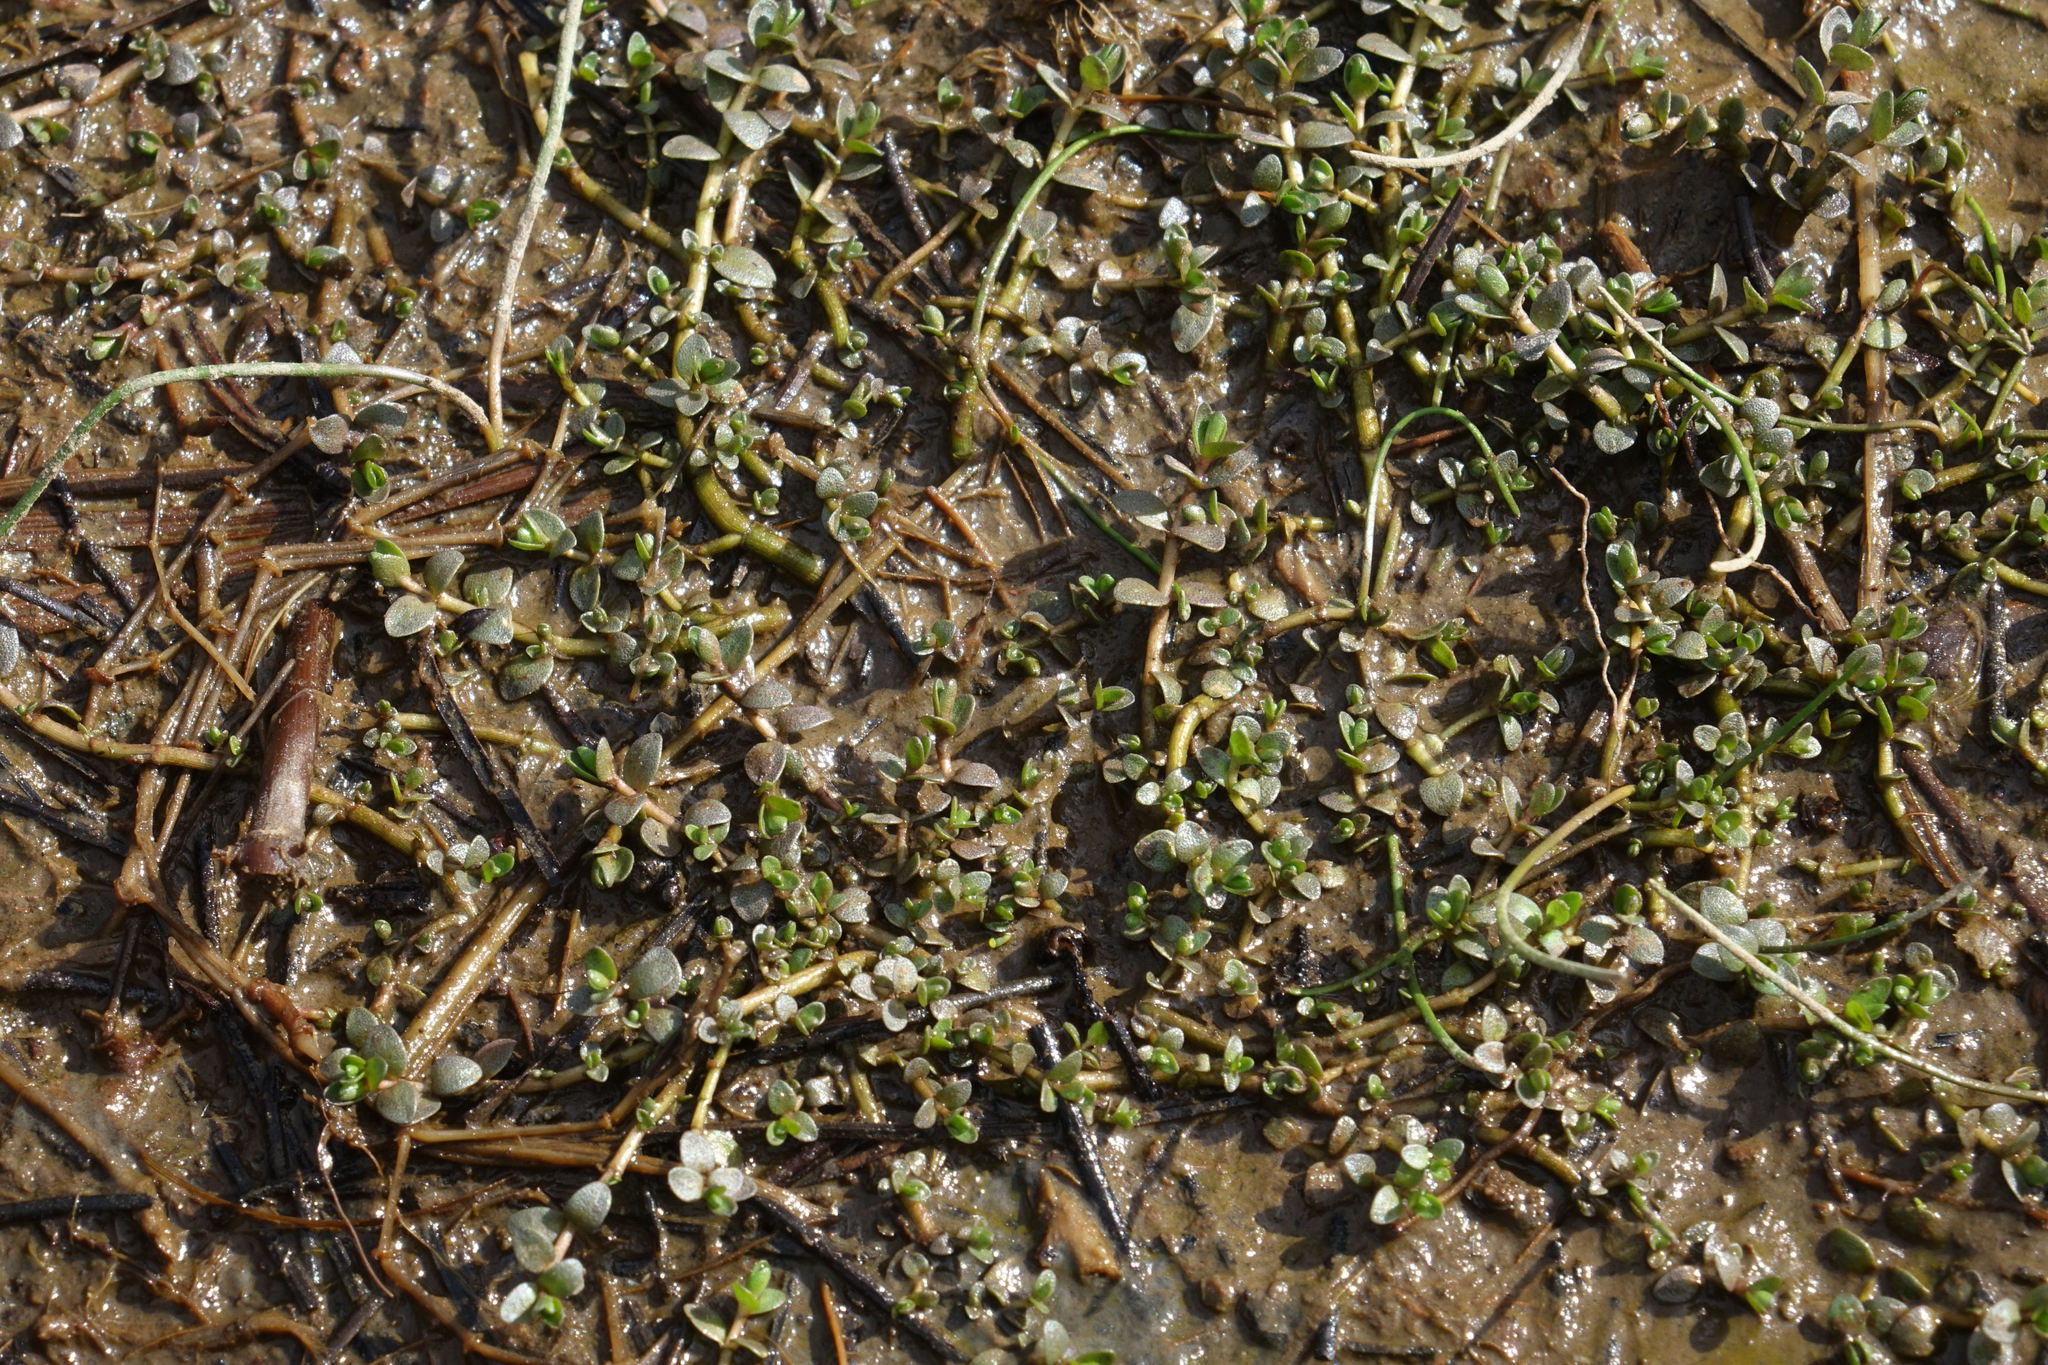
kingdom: Plantae
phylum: Tracheophyta
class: Magnoliopsida
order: Lamiales
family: Phrymaceae
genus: Thyridia
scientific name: Thyridia repens
